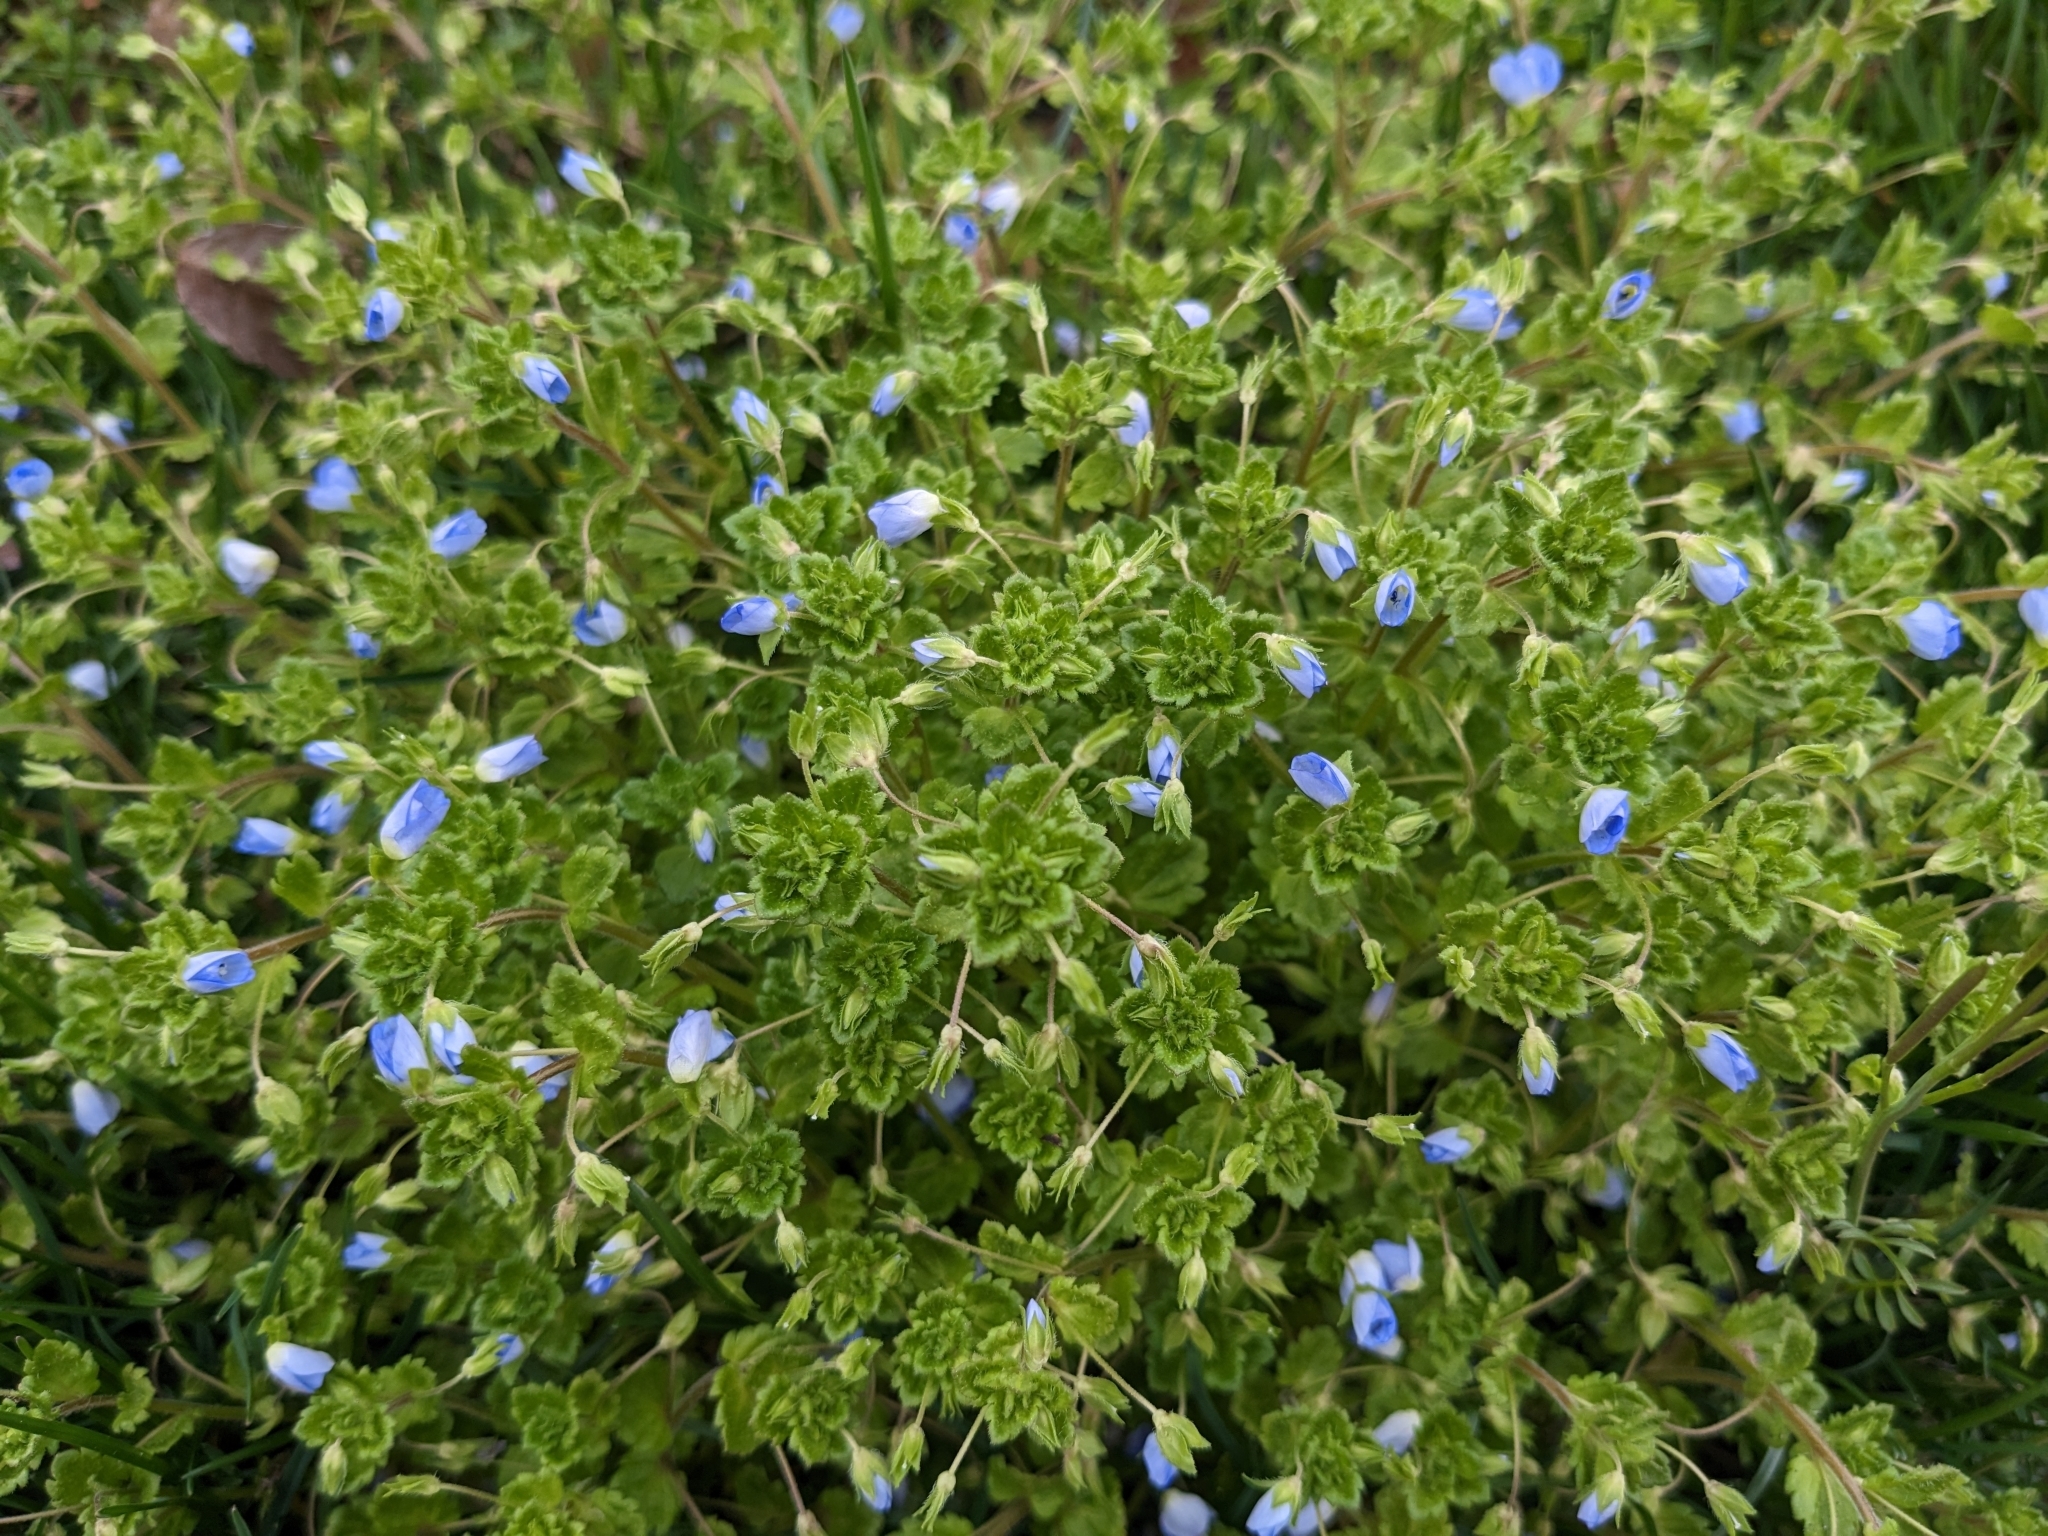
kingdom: Plantae
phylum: Tracheophyta
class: Magnoliopsida
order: Lamiales
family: Plantaginaceae
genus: Veronica
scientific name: Veronica persica
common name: Common field-speedwell
